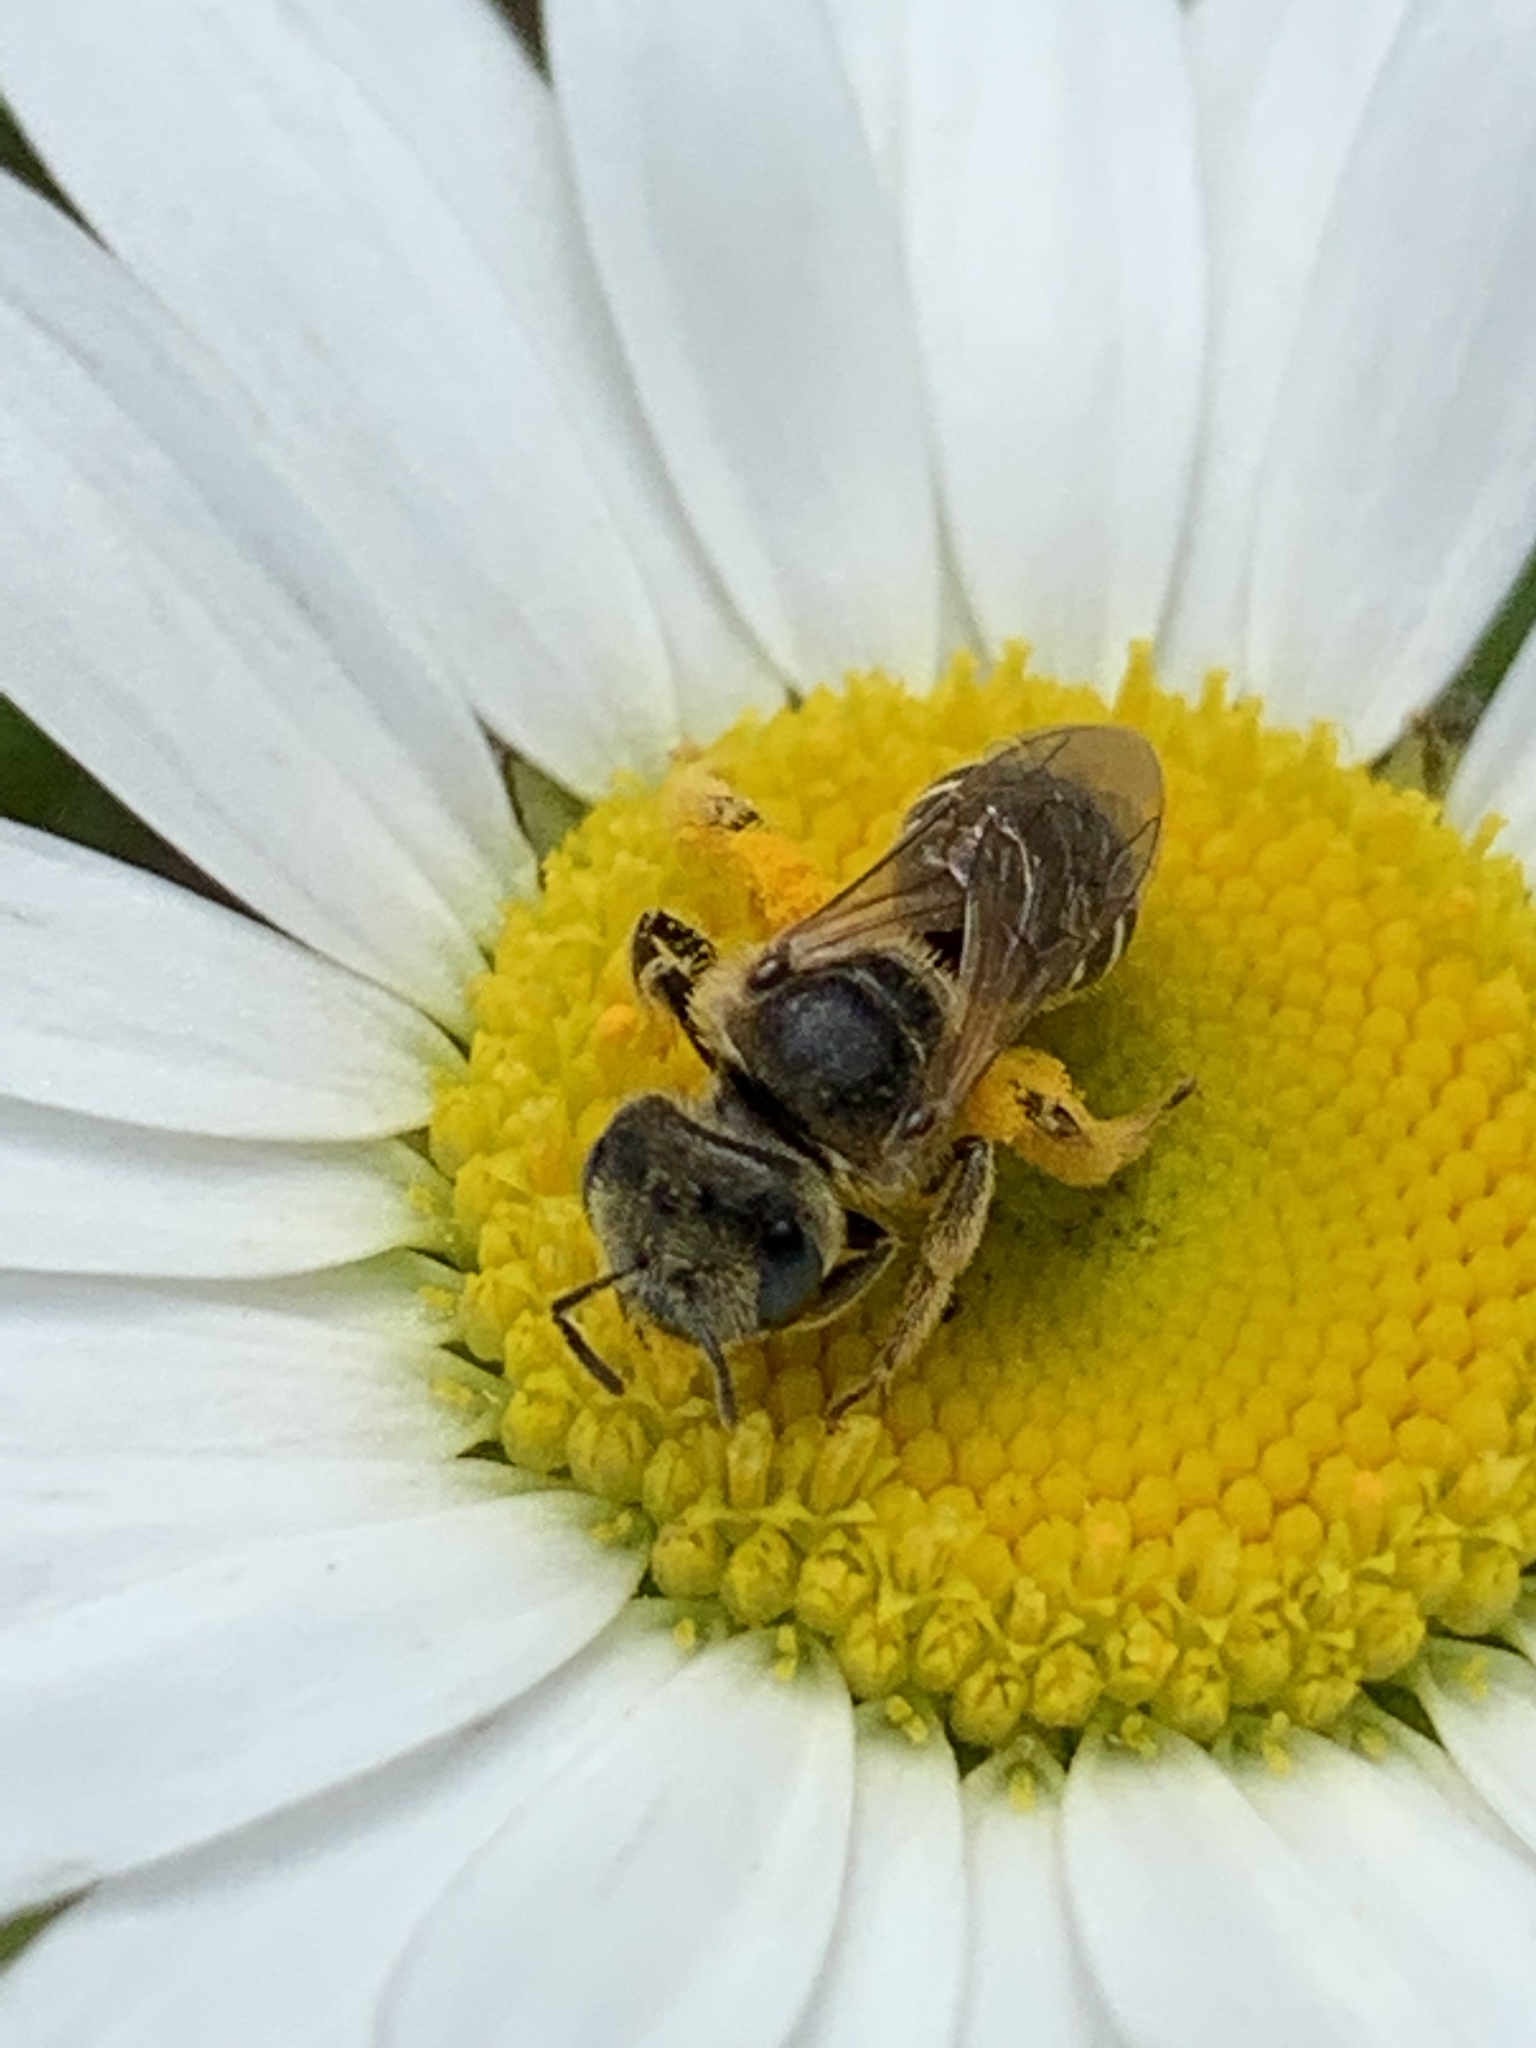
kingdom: Animalia
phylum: Arthropoda
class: Insecta
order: Hymenoptera
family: Halictidae
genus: Halictus
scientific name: Halictus ligatus
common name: Ligated furrow bee
